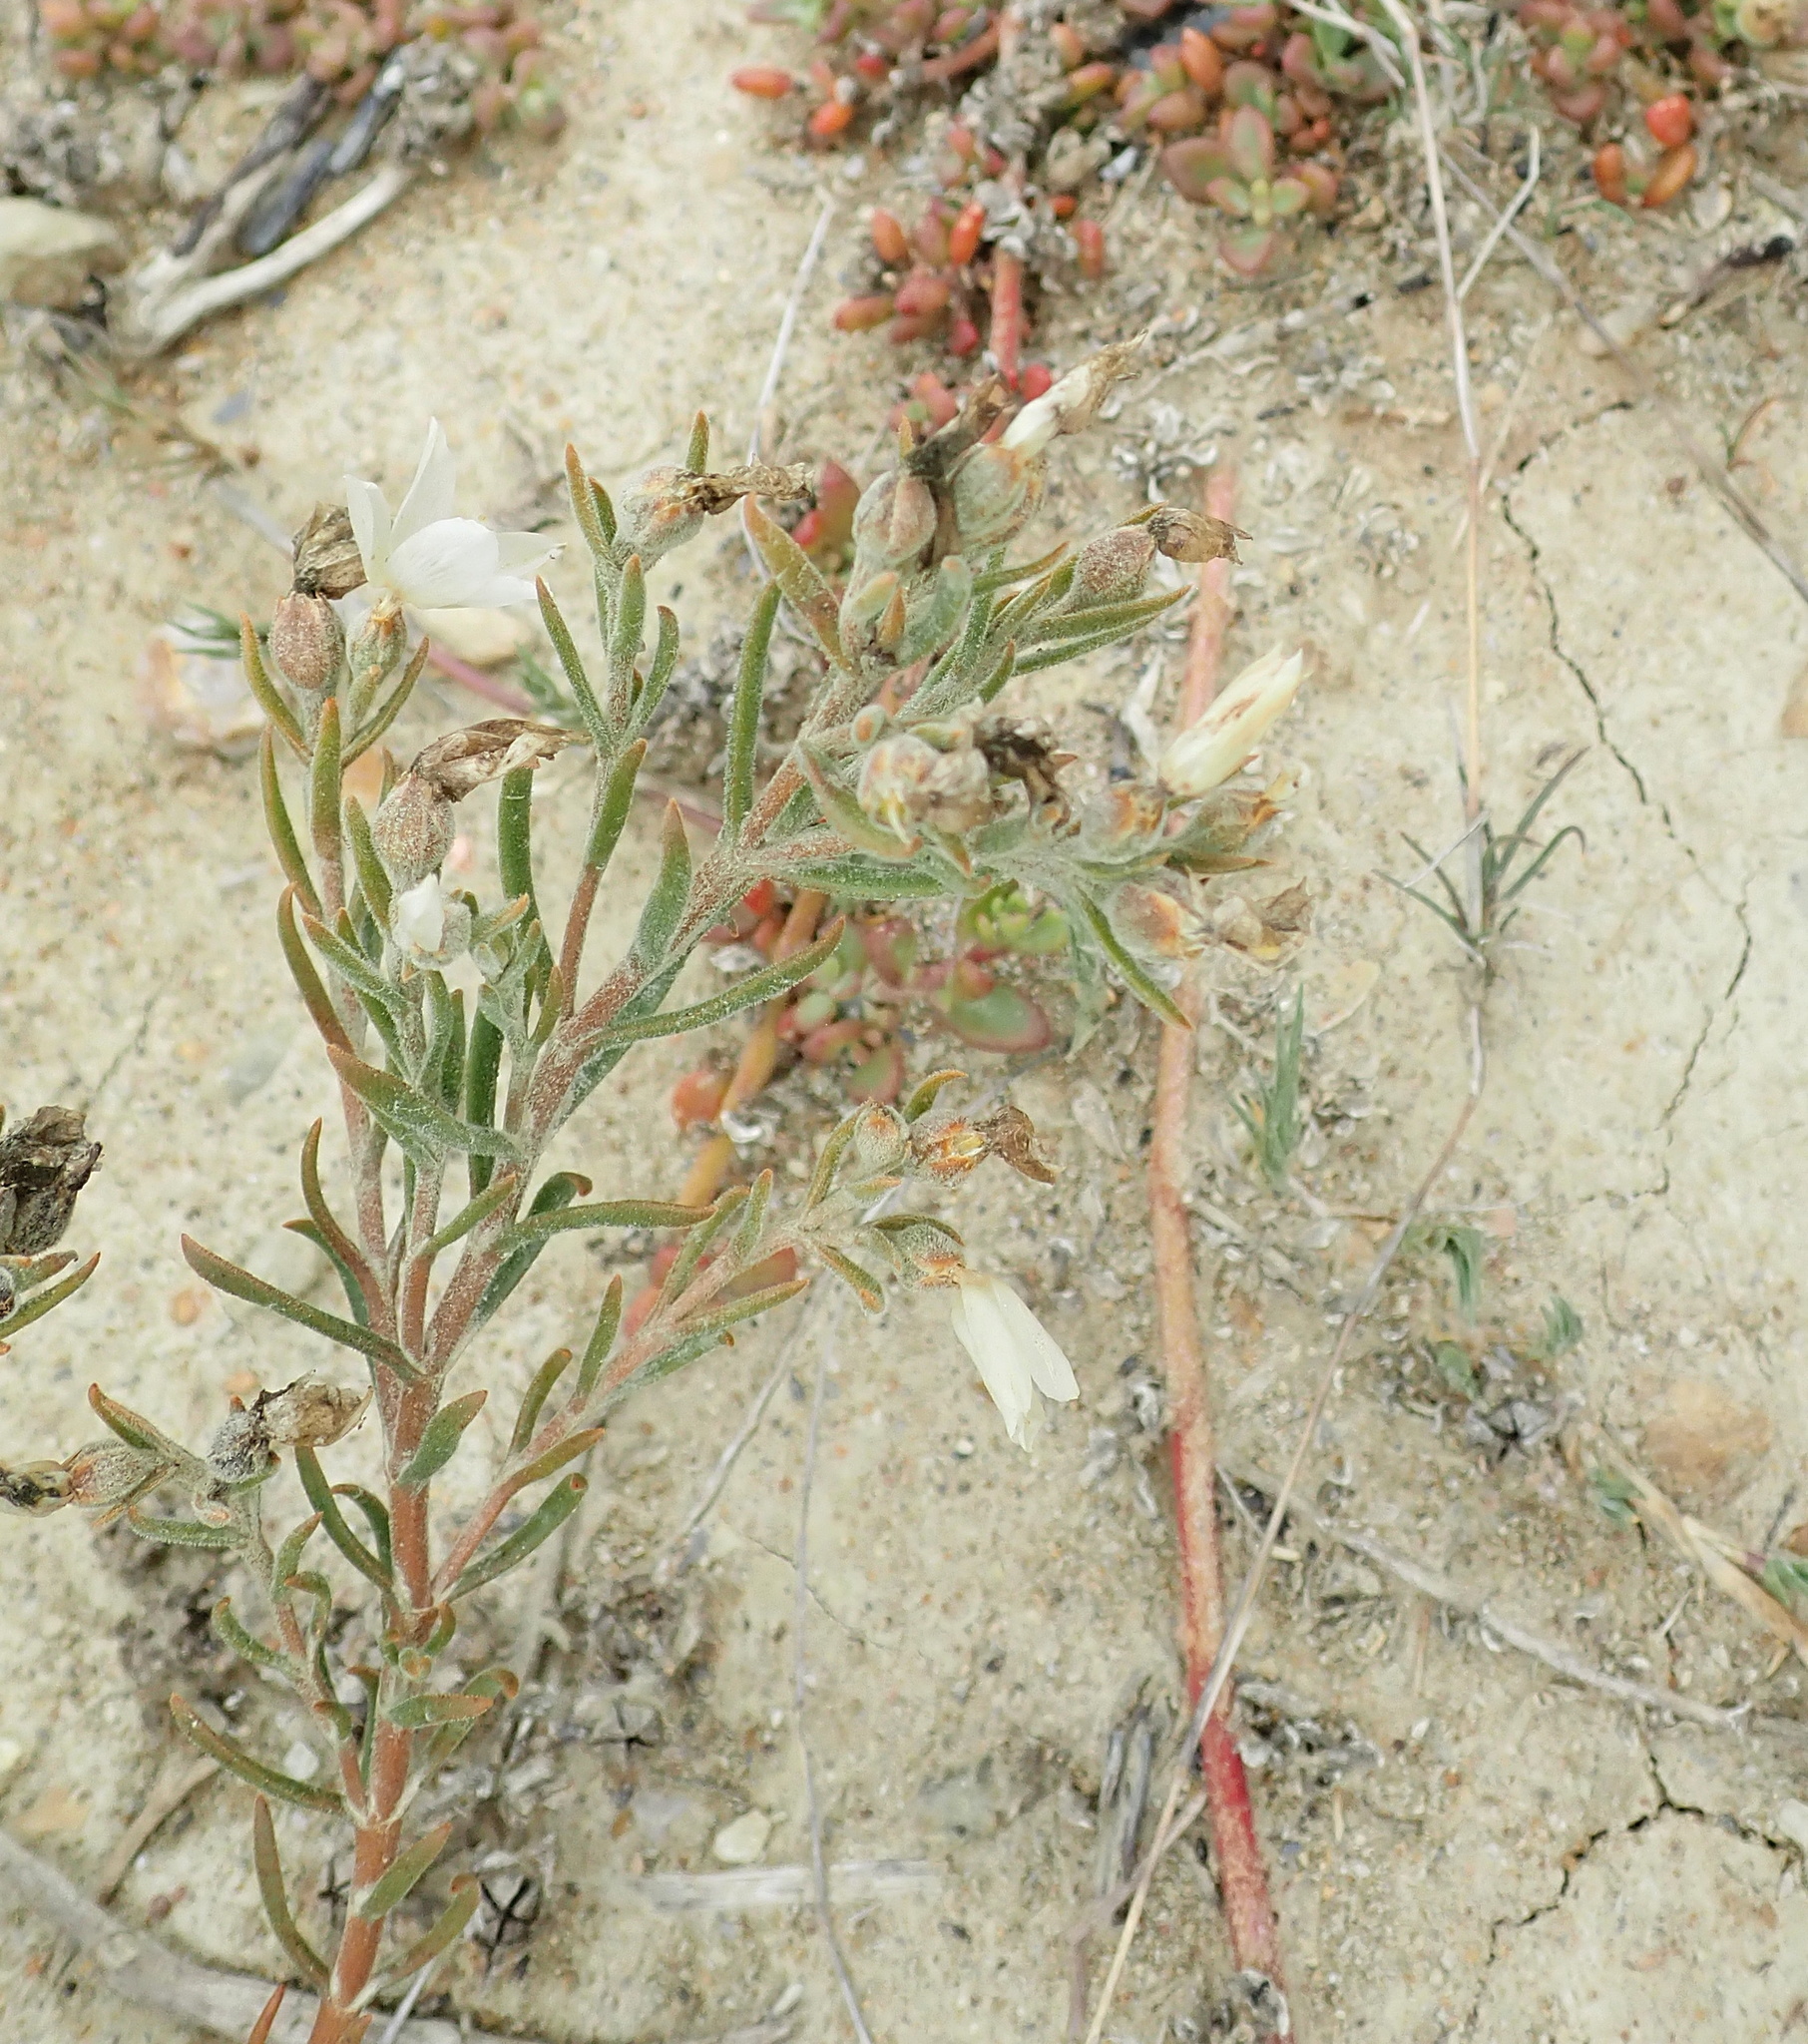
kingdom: Plantae
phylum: Tracheophyta
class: Magnoliopsida
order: Gentianales
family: Gentianaceae
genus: Orphium
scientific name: Orphium frutescens
